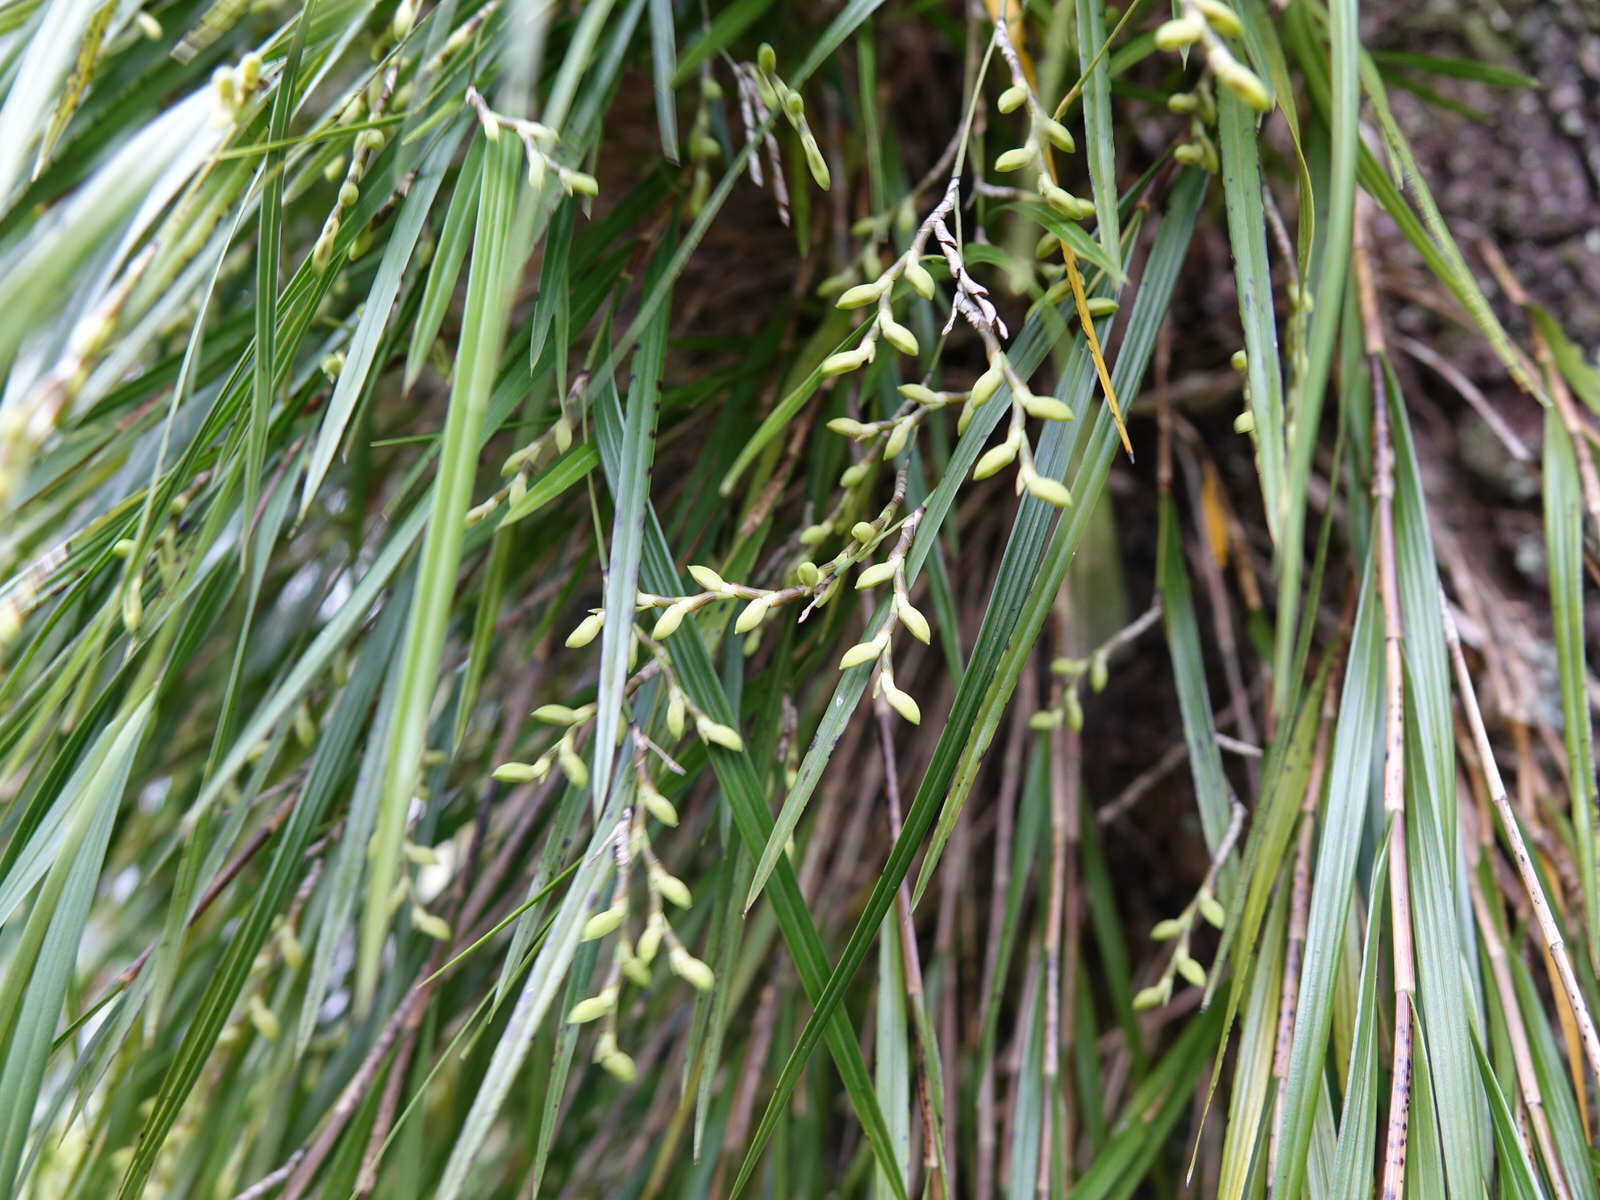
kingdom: Plantae
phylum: Tracheophyta
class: Liliopsida
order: Asparagales
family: Orchidaceae
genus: Earina
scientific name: Earina mucronata
